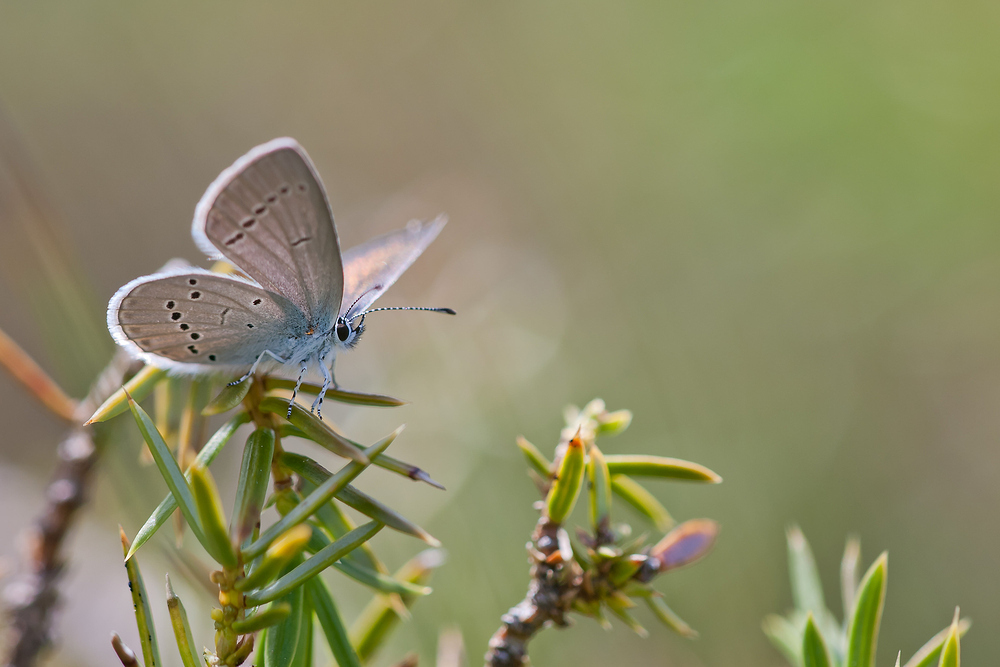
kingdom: Animalia
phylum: Arthropoda
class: Insecta
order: Lepidoptera
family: Lycaenidae
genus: Cupido
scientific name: Cupido minimus
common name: Small blue
